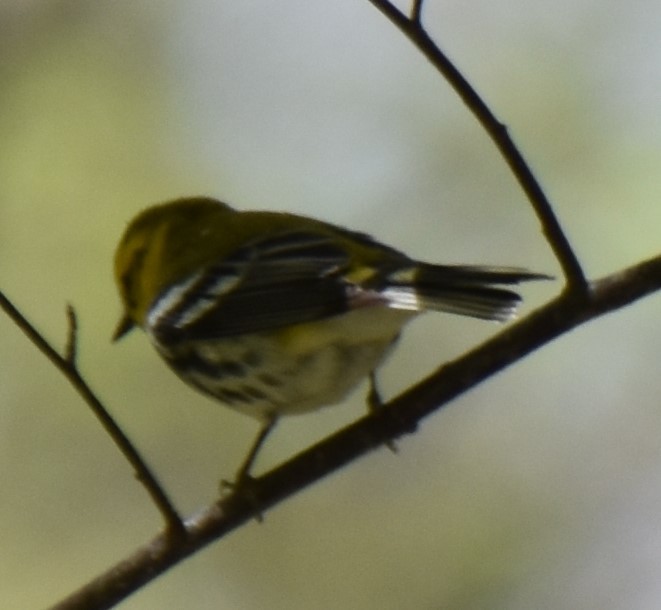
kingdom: Animalia
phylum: Chordata
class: Aves
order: Passeriformes
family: Parulidae
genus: Setophaga
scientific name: Setophaga virens
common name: Black-throated green warbler
